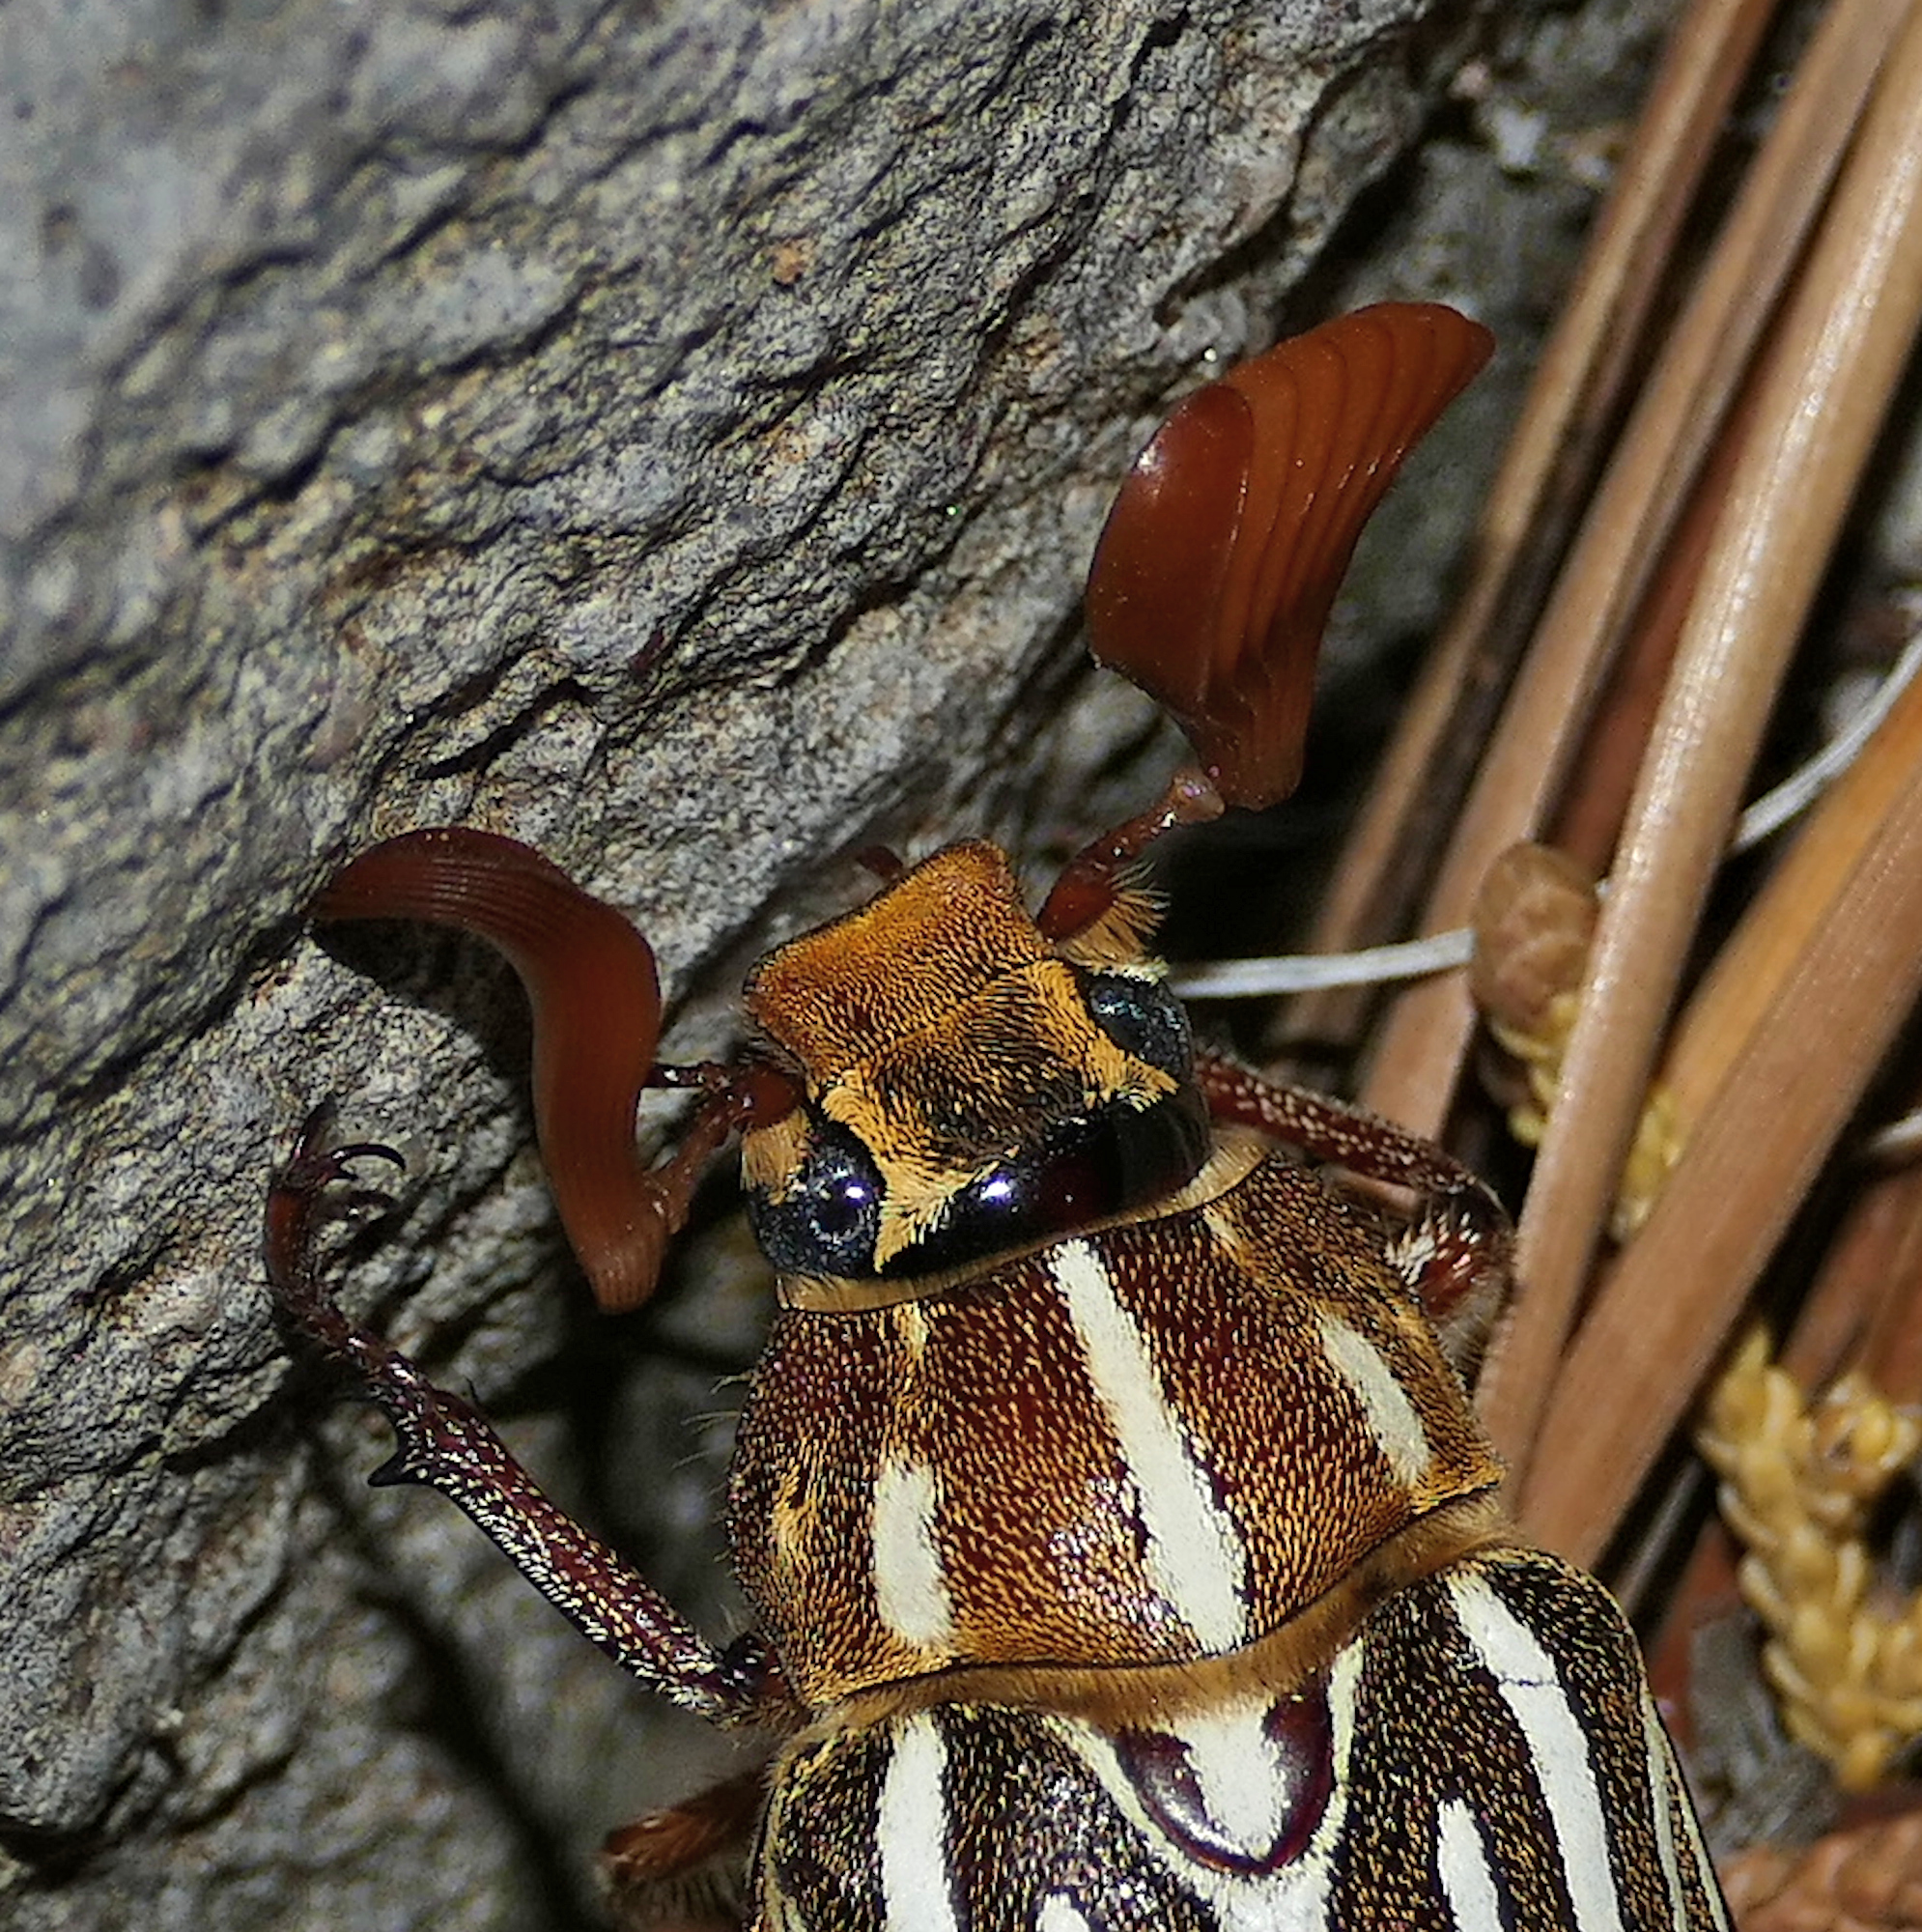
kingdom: Animalia
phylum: Arthropoda
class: Insecta
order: Coleoptera
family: Scarabaeidae
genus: Polyphylla
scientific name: Polyphylla decemlineata
